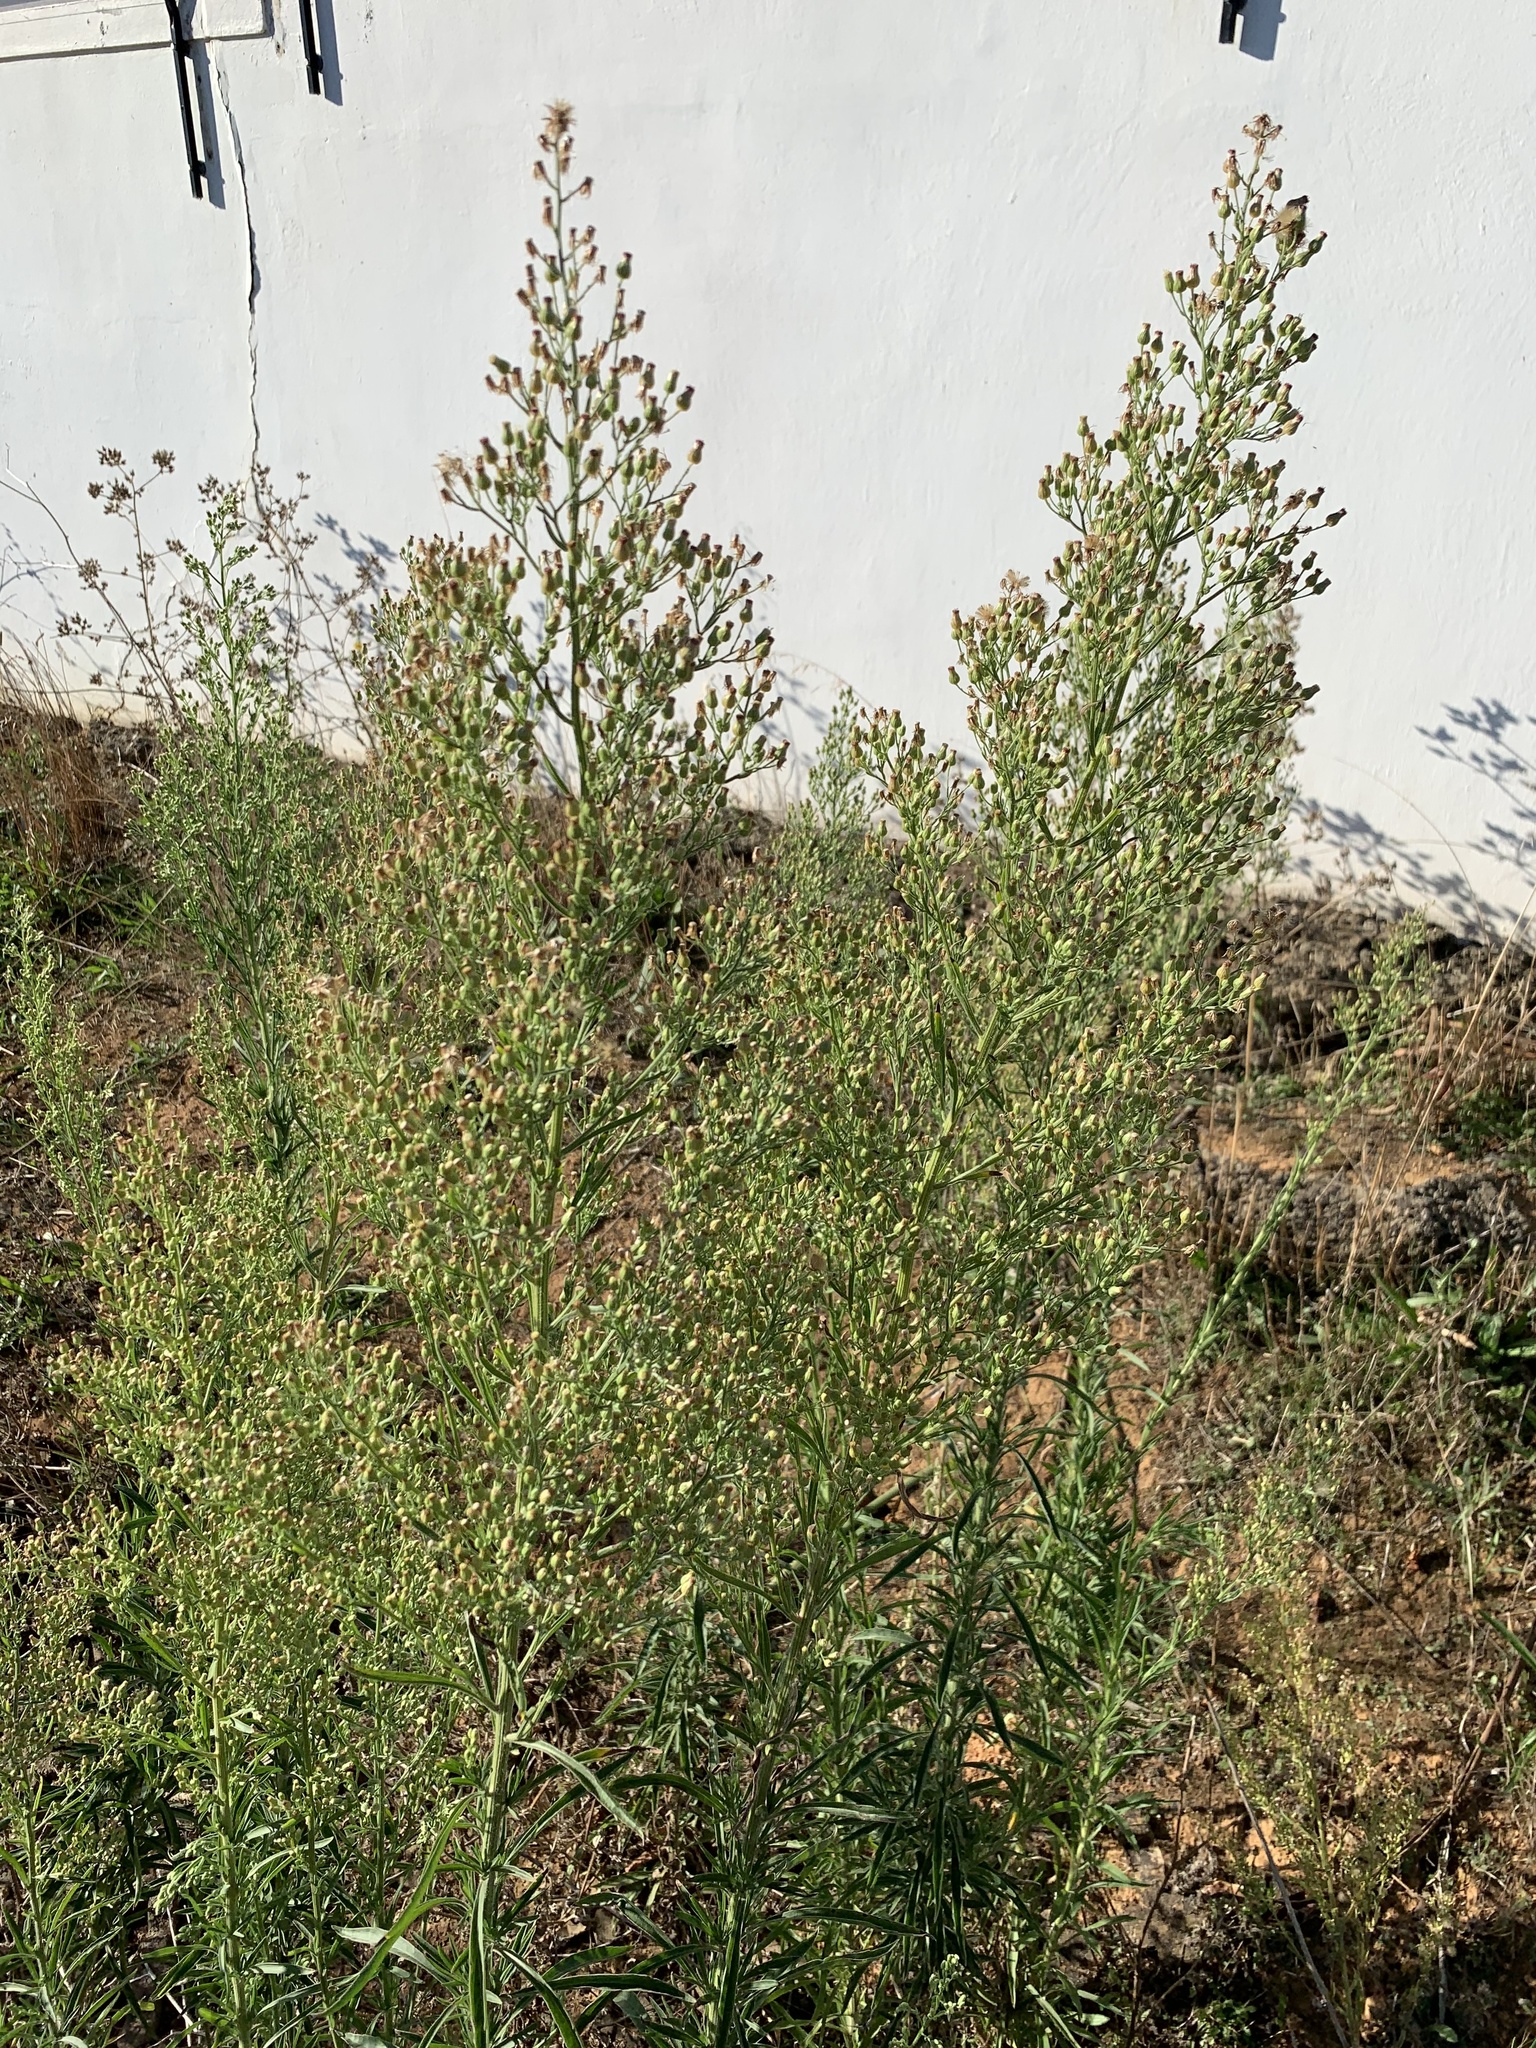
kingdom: Plantae
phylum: Tracheophyta
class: Magnoliopsida
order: Asterales
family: Asteraceae
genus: Erigeron
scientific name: Erigeron sumatrensis
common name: Daisy
